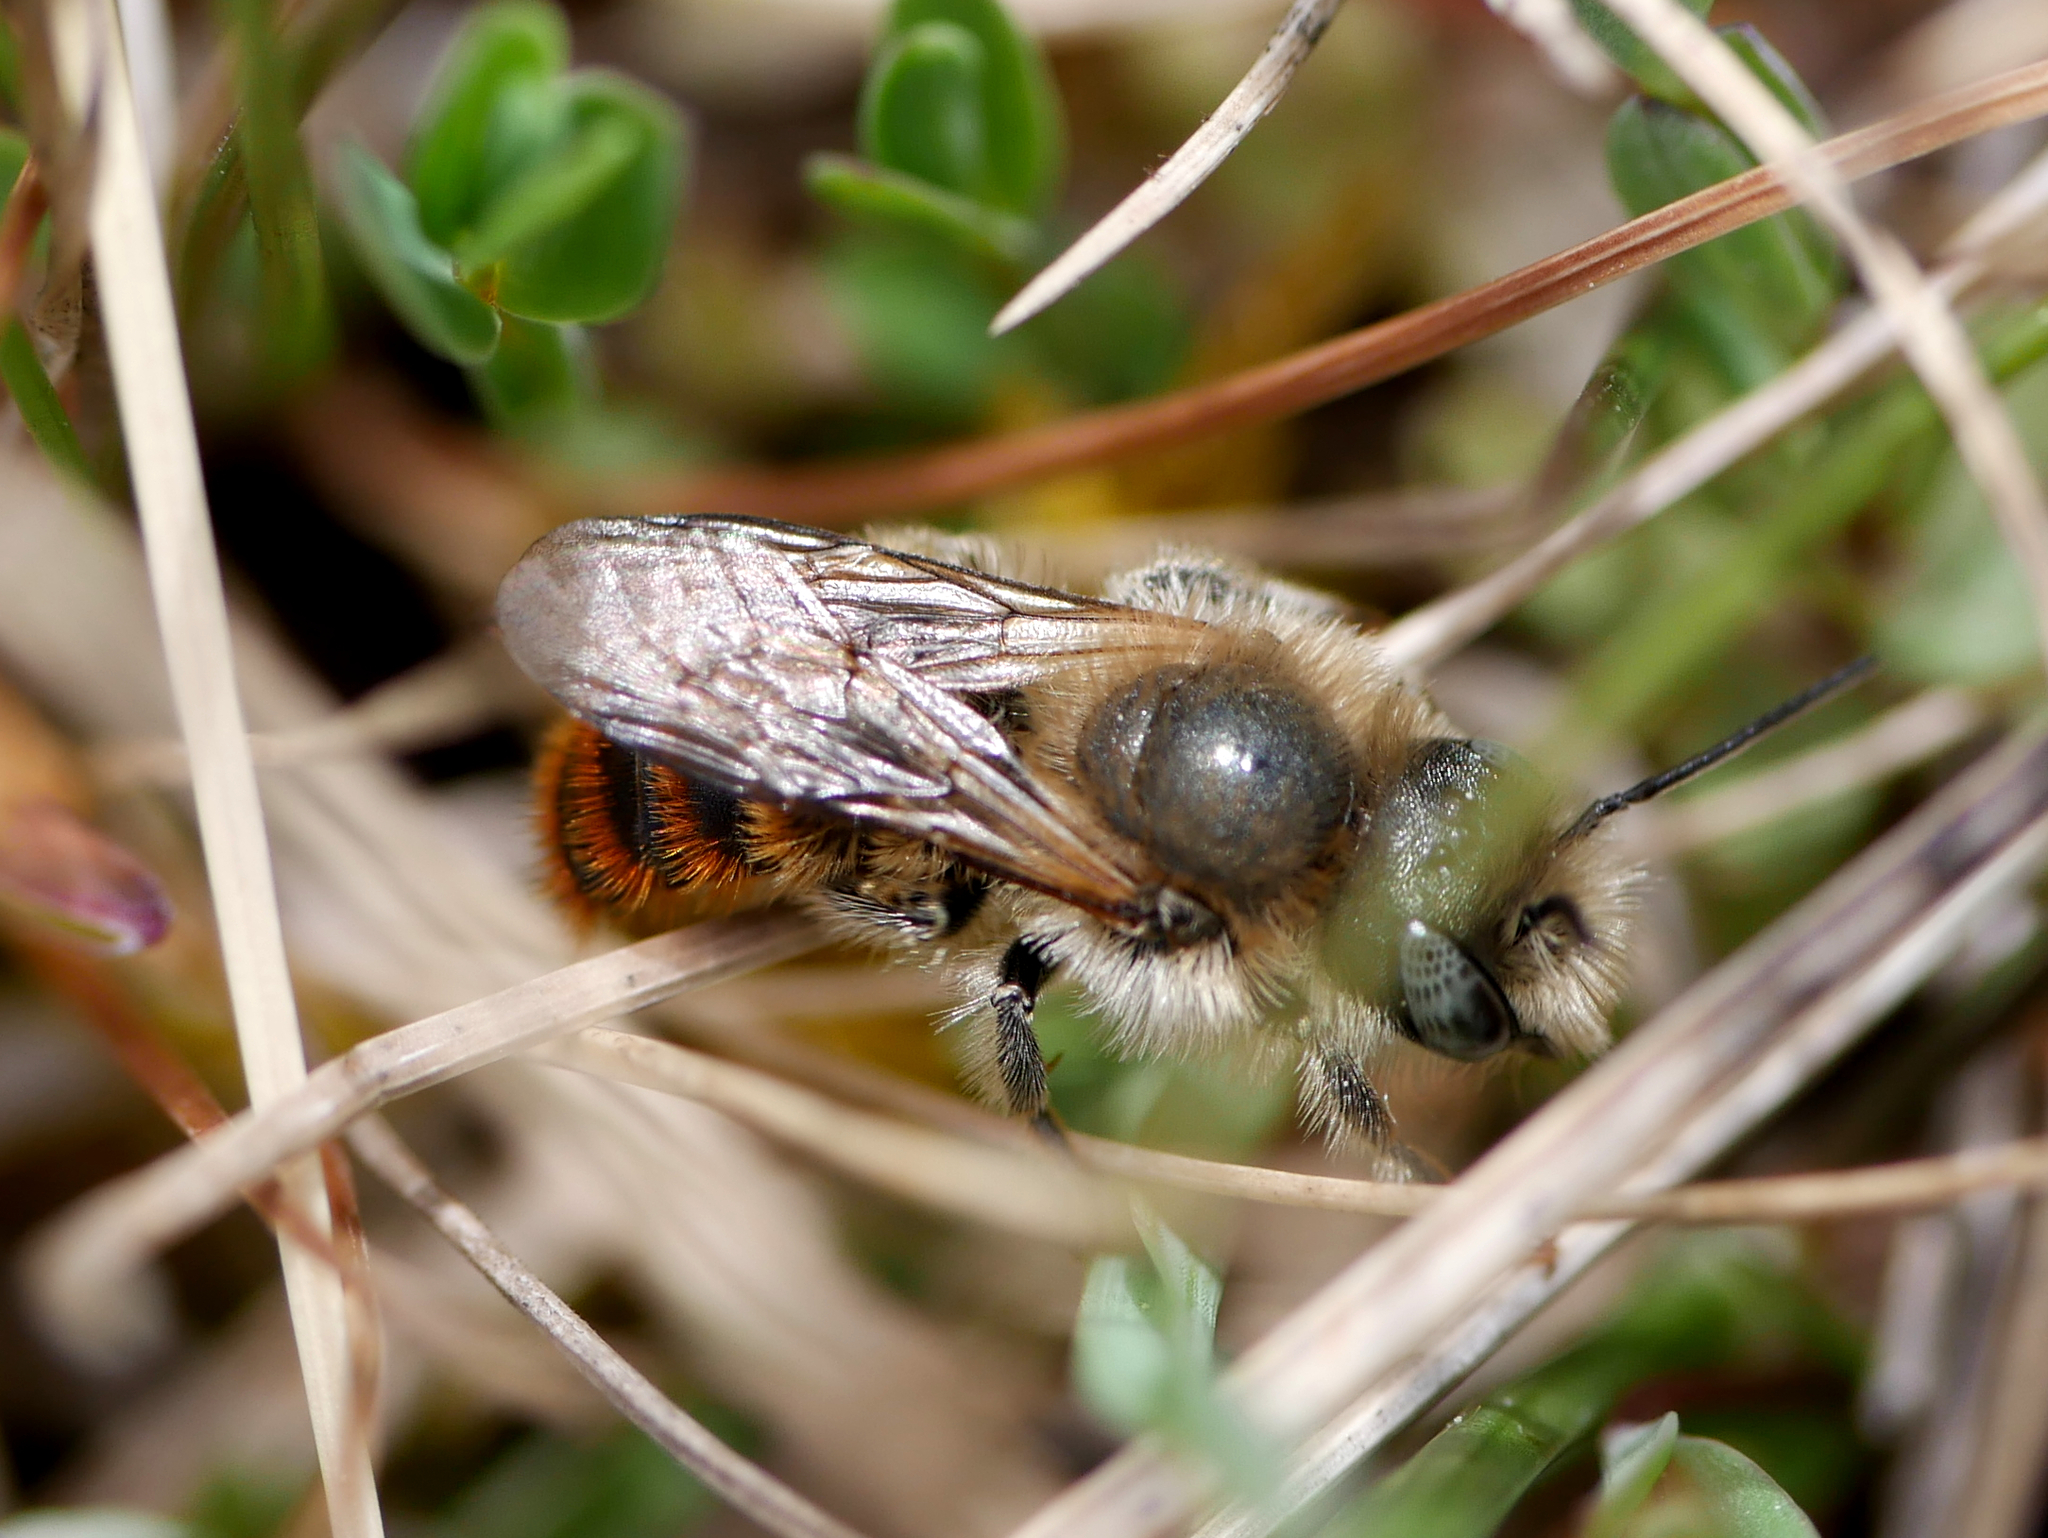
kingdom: Animalia
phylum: Arthropoda
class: Insecta
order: Hymenoptera
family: Megachilidae
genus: Osmia
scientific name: Osmia aurulenta
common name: Gold-fringed mason bee
